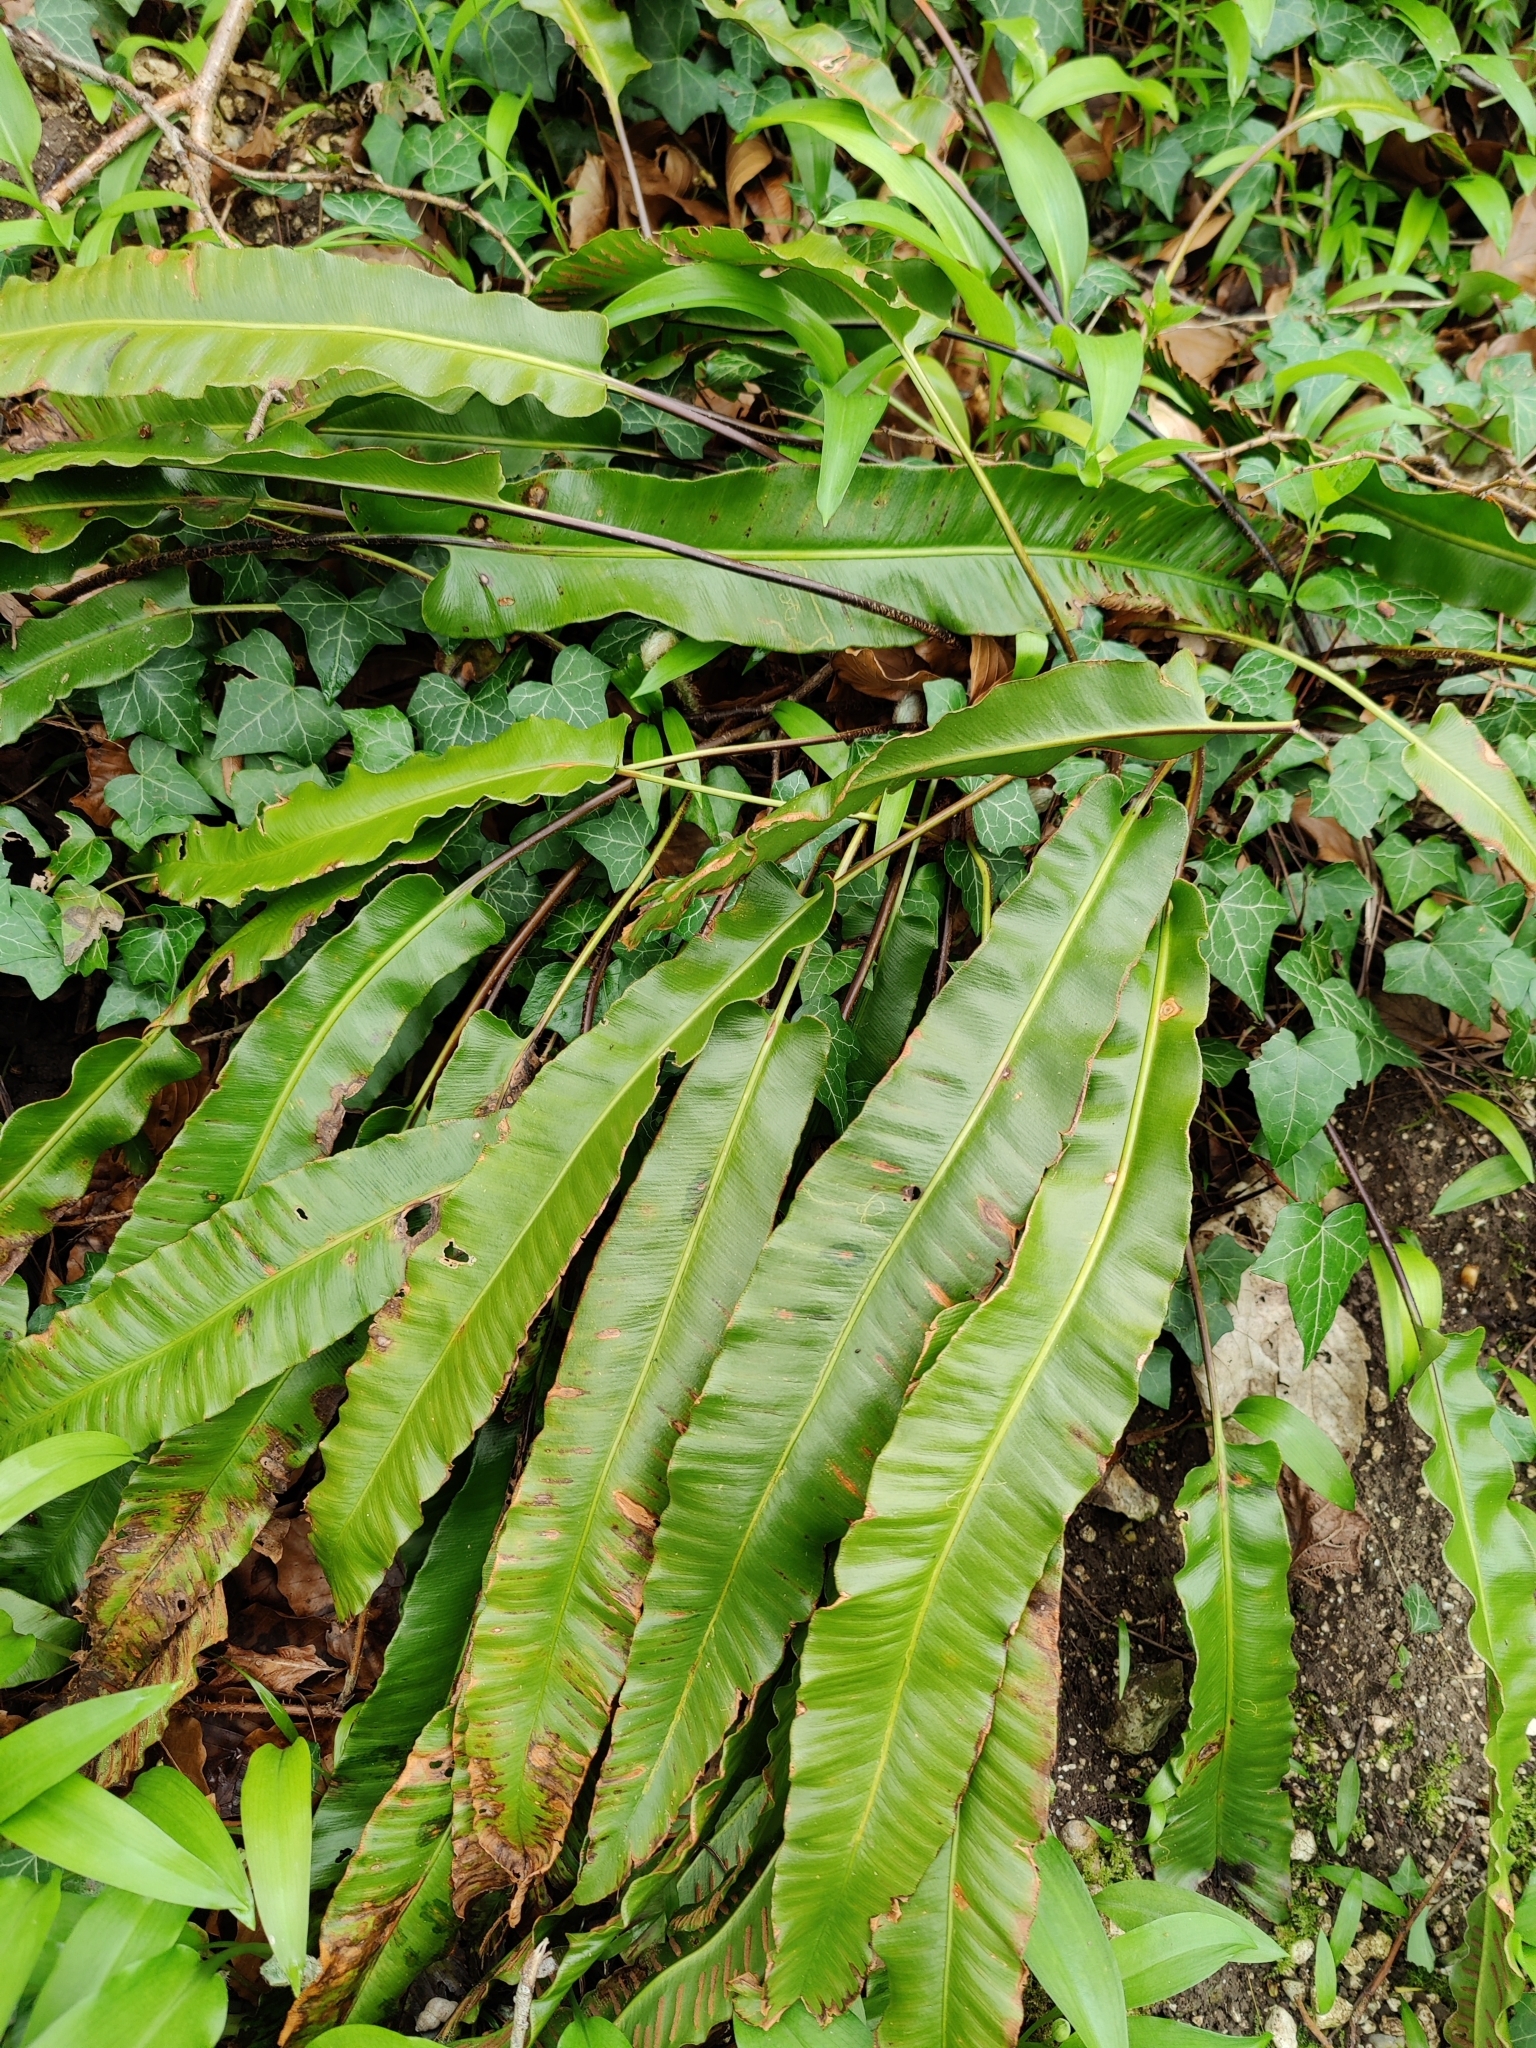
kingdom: Plantae
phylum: Tracheophyta
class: Polypodiopsida
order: Polypodiales
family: Aspleniaceae
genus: Asplenium
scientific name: Asplenium scolopendrium
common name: Hart's-tongue fern
